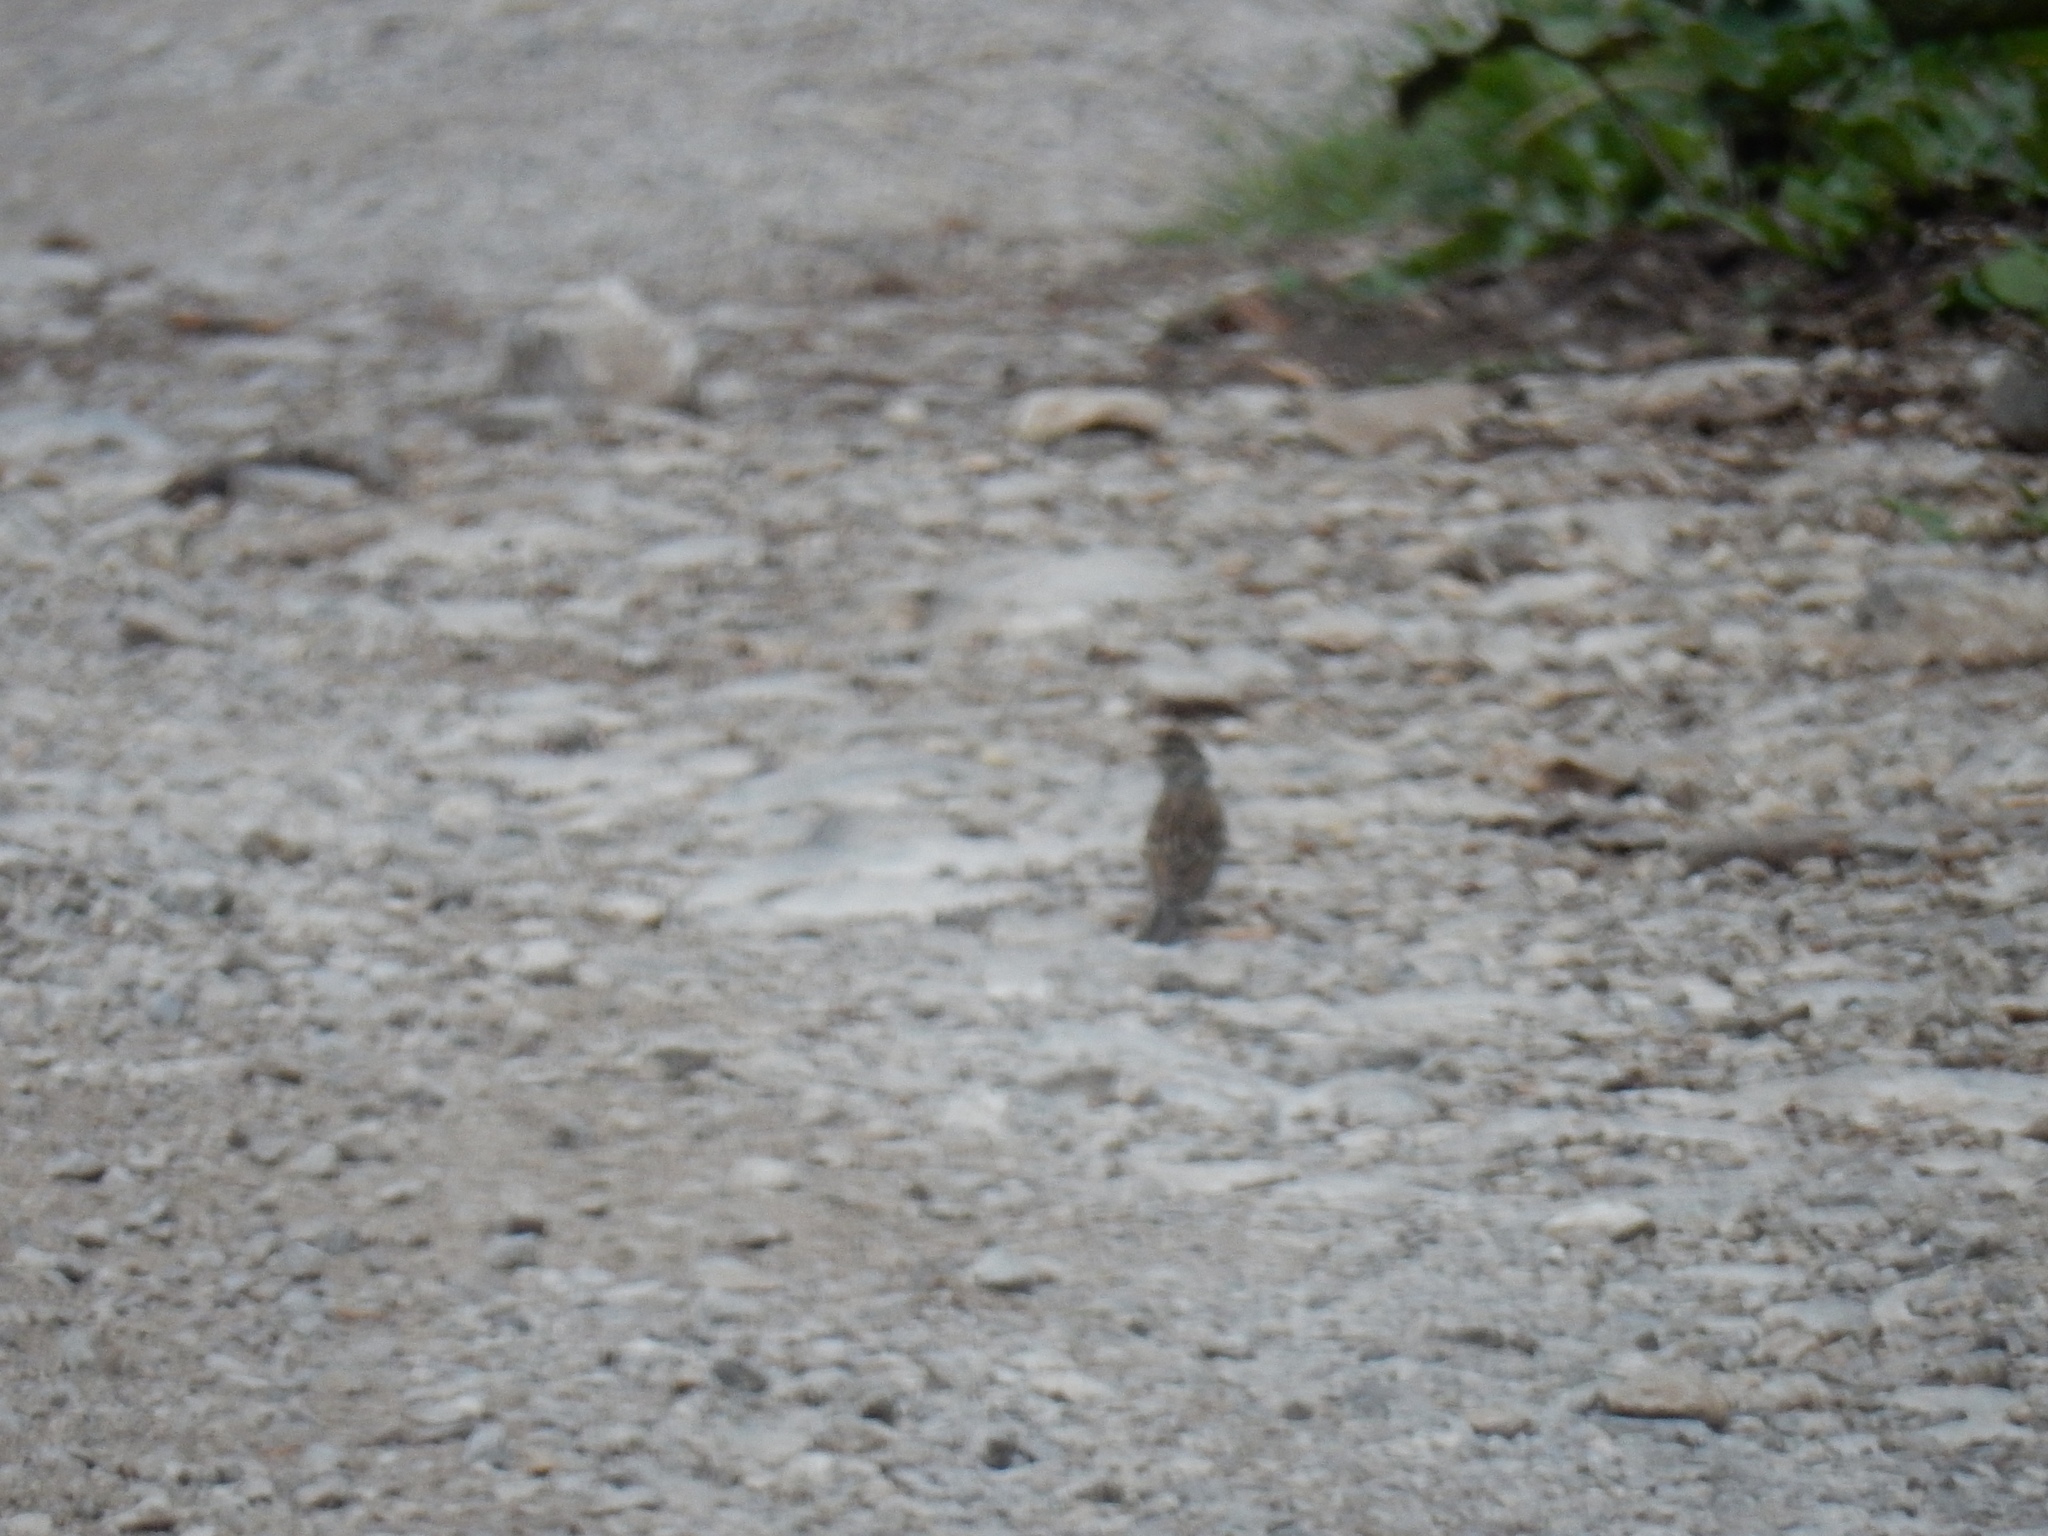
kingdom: Animalia
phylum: Chordata
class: Aves
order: Passeriformes
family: Passerellidae
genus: Spizella
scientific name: Spizella passerina
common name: Chipping sparrow
